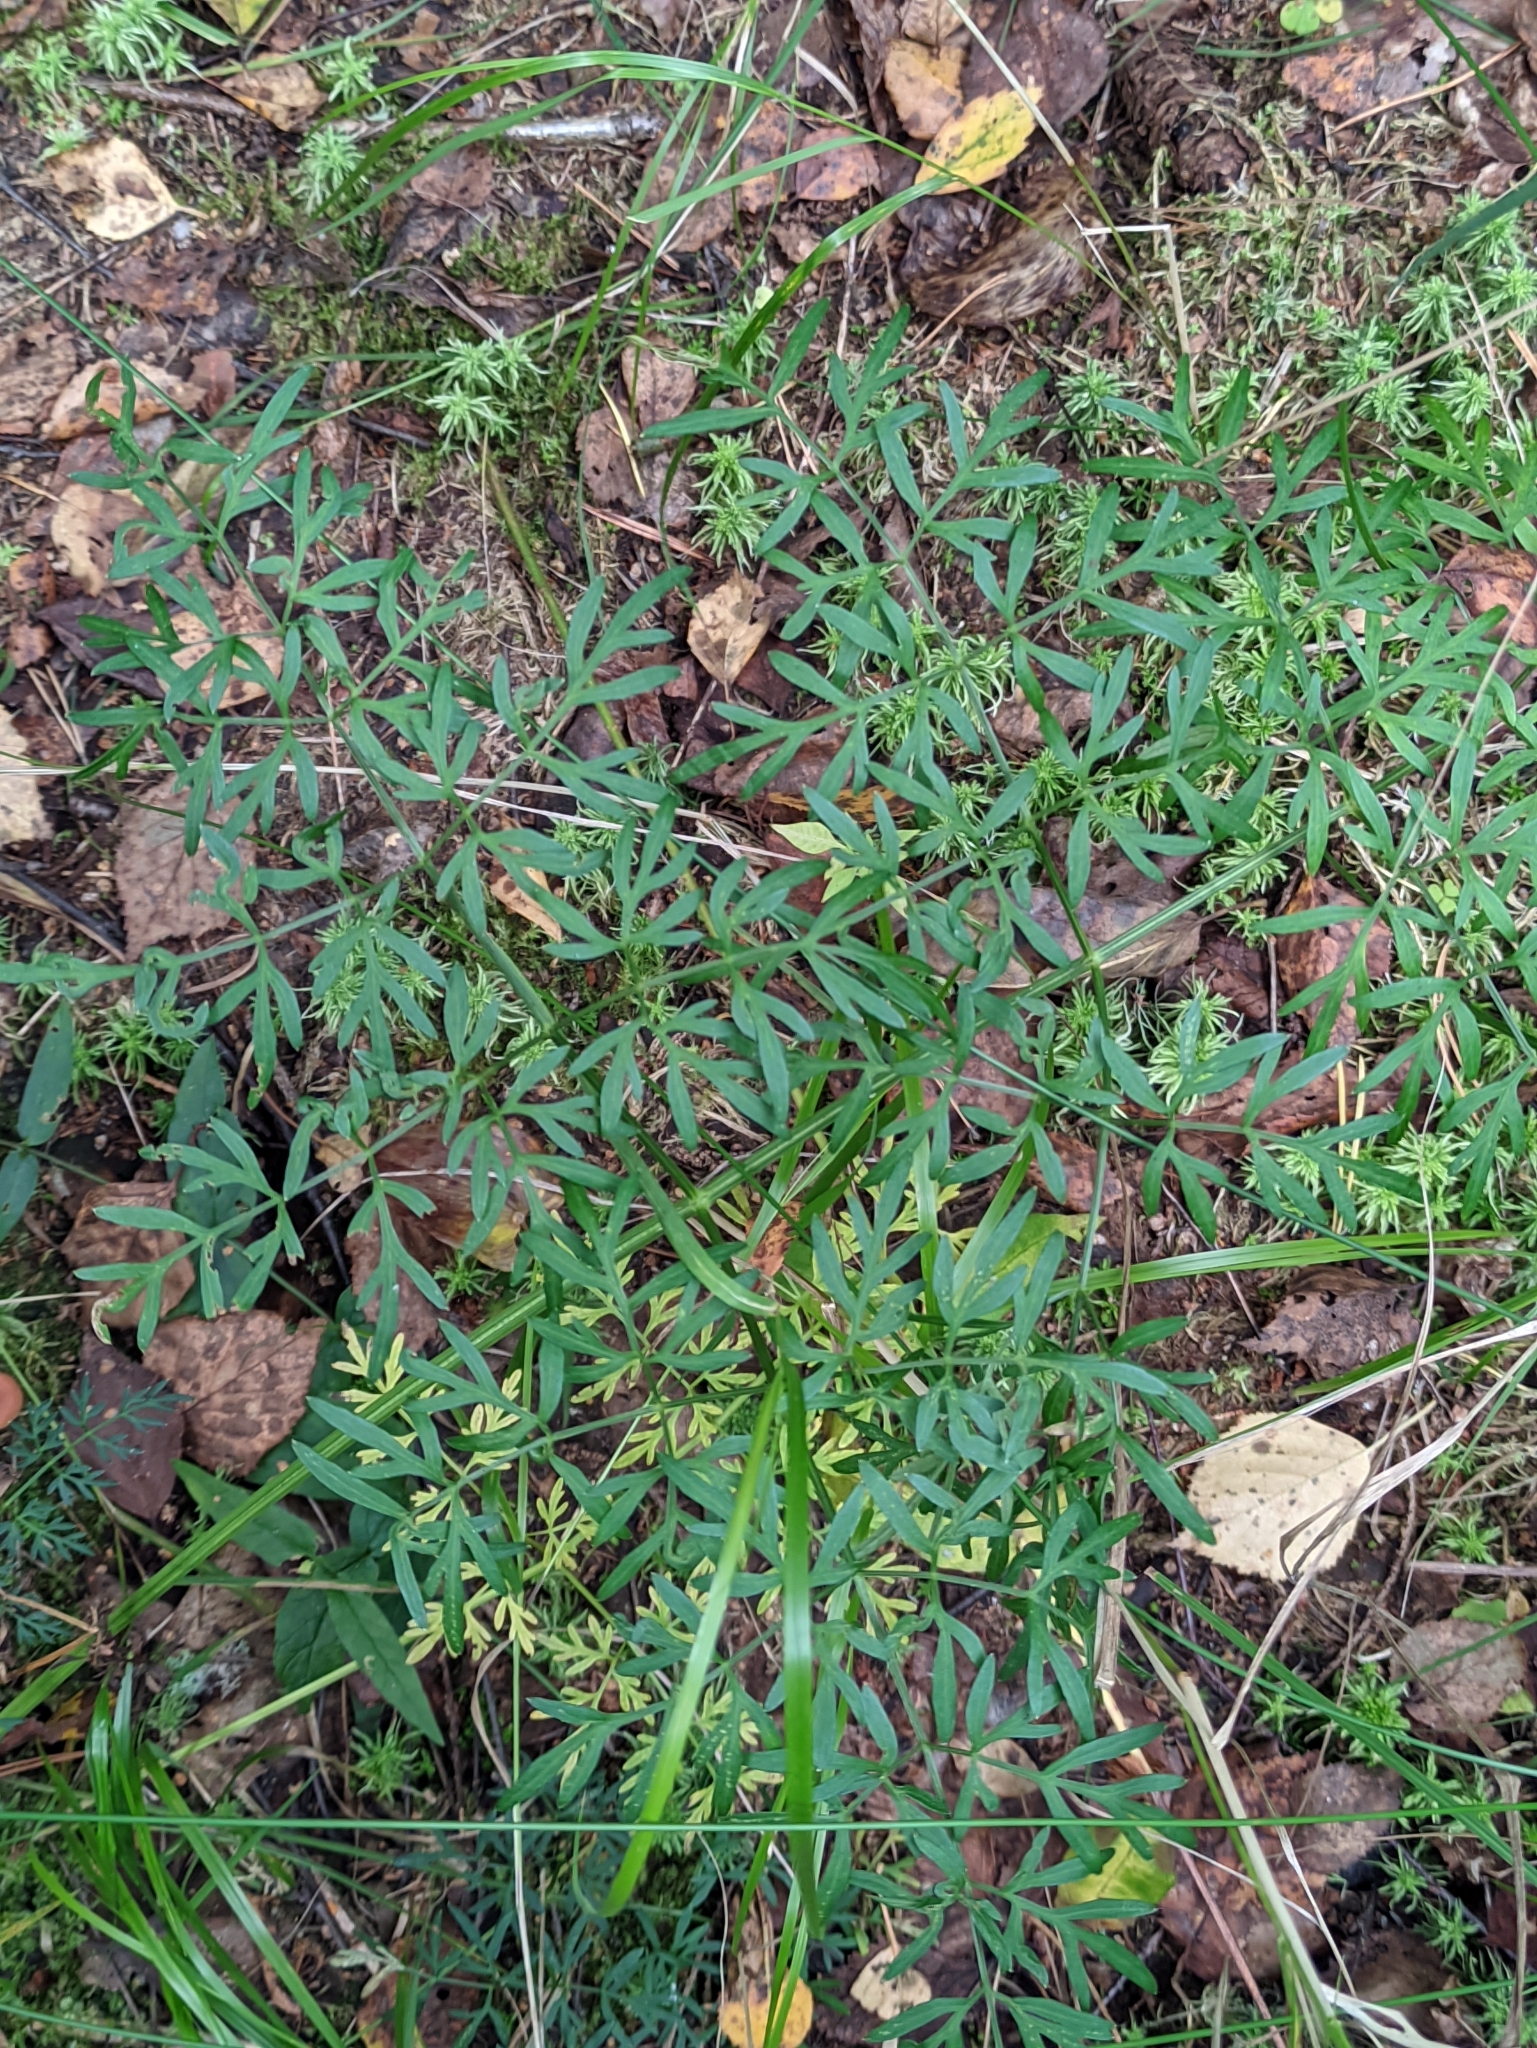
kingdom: Plantae
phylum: Tracheophyta
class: Magnoliopsida
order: Apiales
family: Apiaceae
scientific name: Apiaceae
